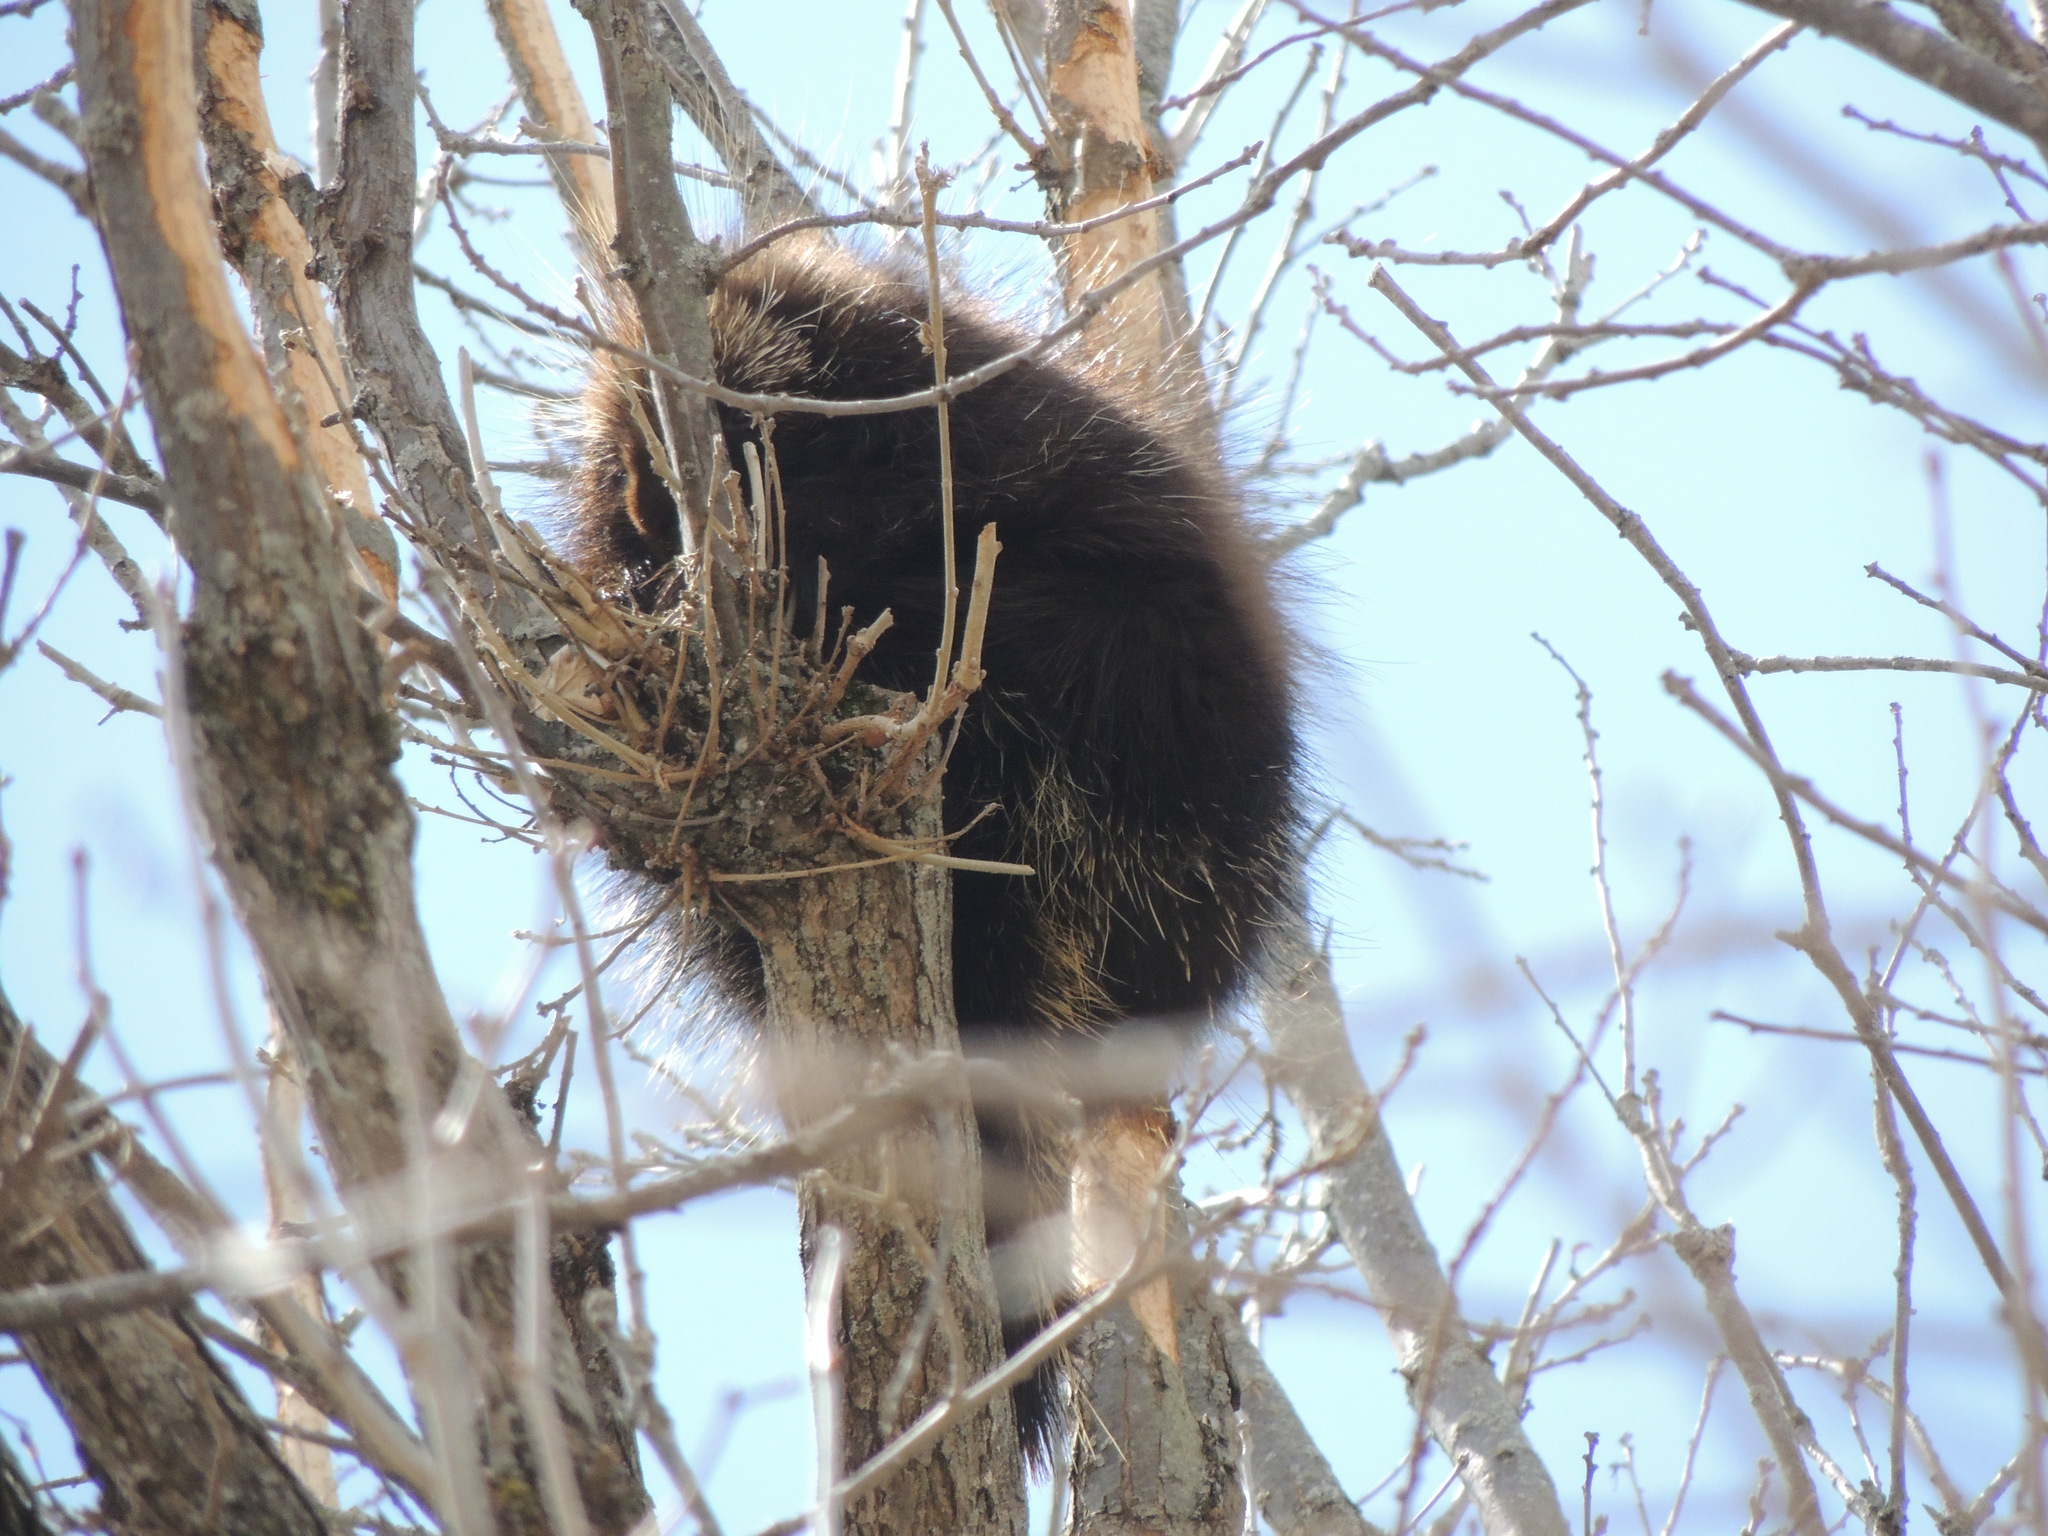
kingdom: Animalia
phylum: Chordata
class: Mammalia
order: Rodentia
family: Erethizontidae
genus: Erethizon
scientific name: Erethizon dorsatus
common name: North american porcupine
